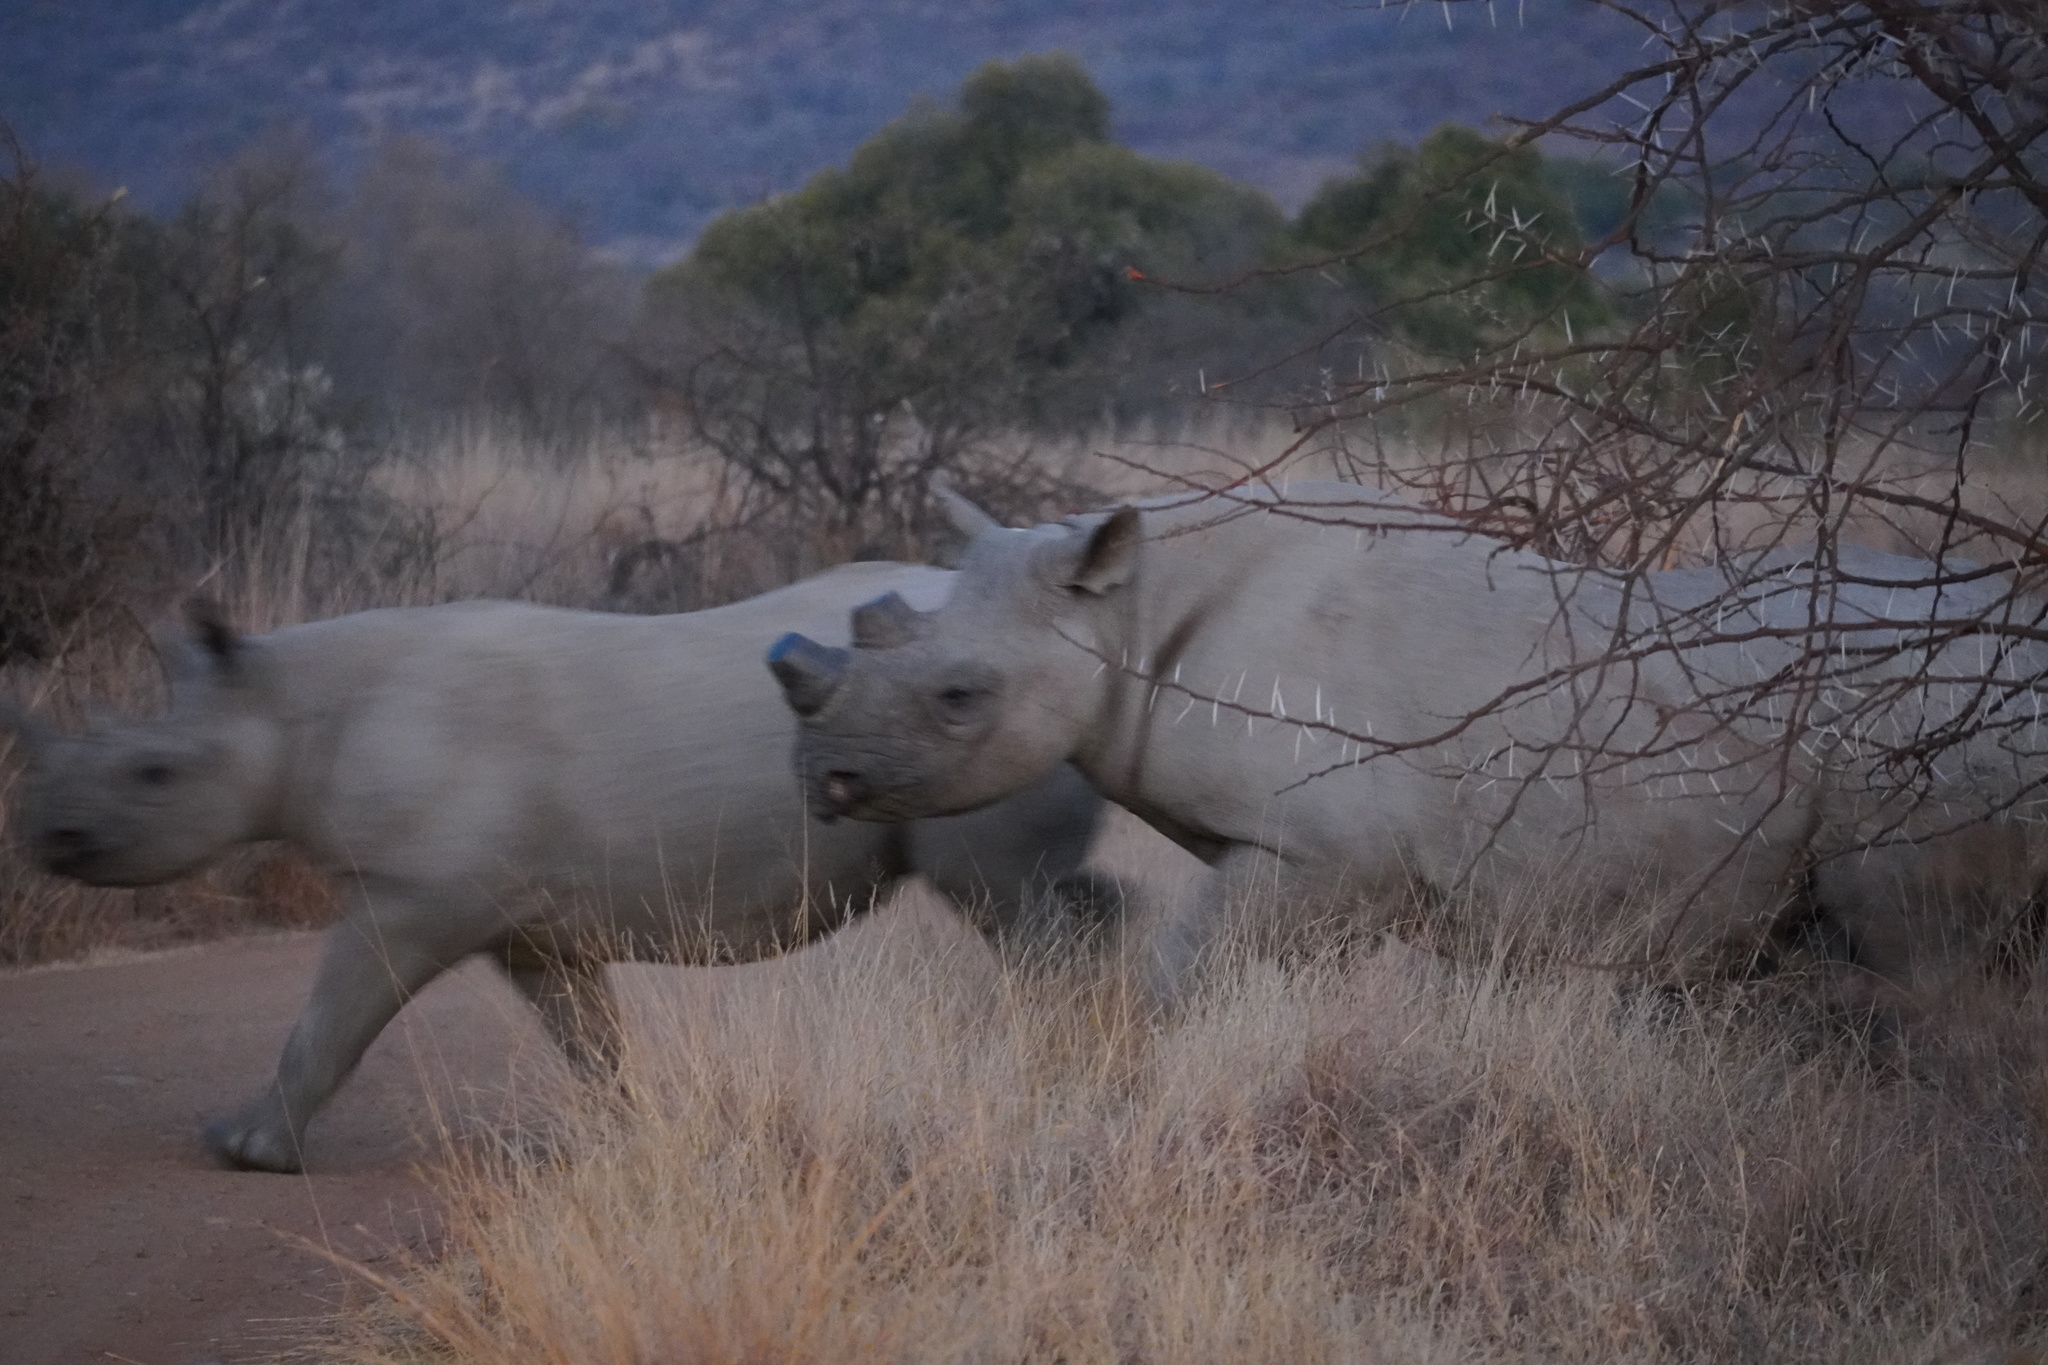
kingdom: Animalia
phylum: Chordata
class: Mammalia
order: Perissodactyla
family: Rhinocerotidae
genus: Diceros
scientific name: Diceros bicornis
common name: Black rhinoceros
